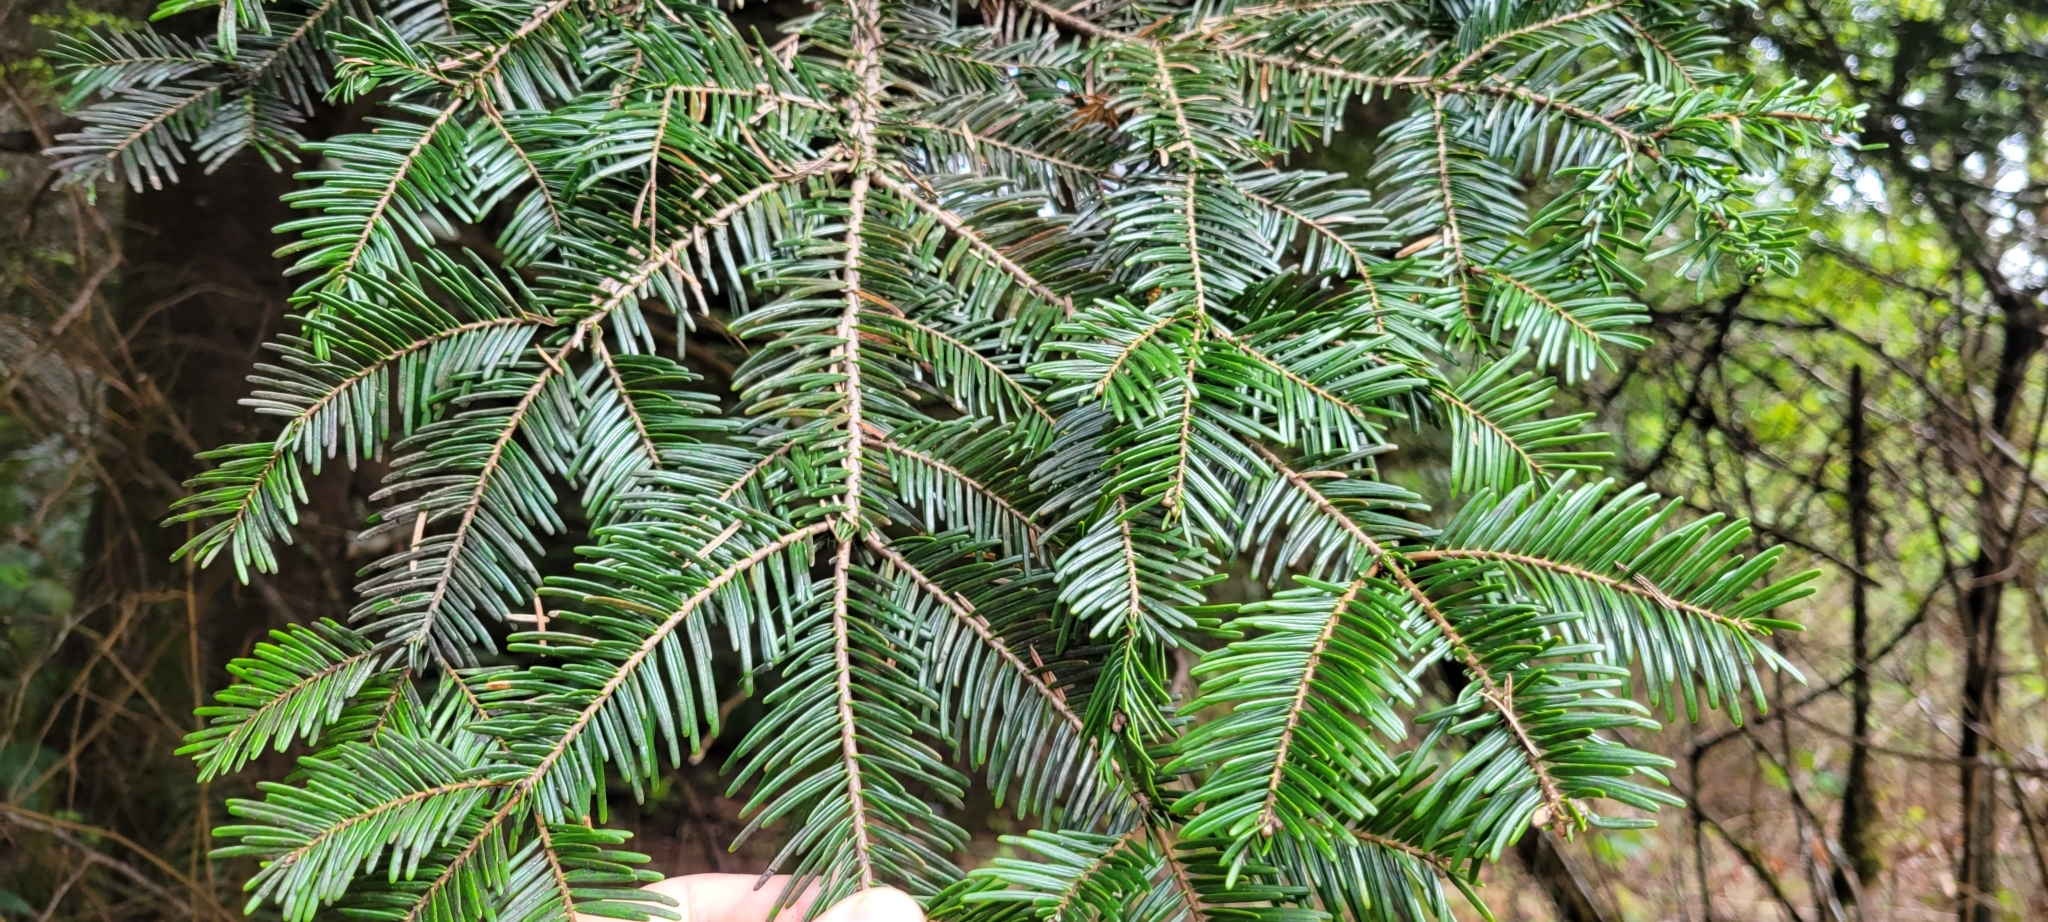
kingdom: Plantae
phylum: Tracheophyta
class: Pinopsida
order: Pinales
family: Pinaceae
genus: Abies
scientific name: Abies grandis
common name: Giant fir
